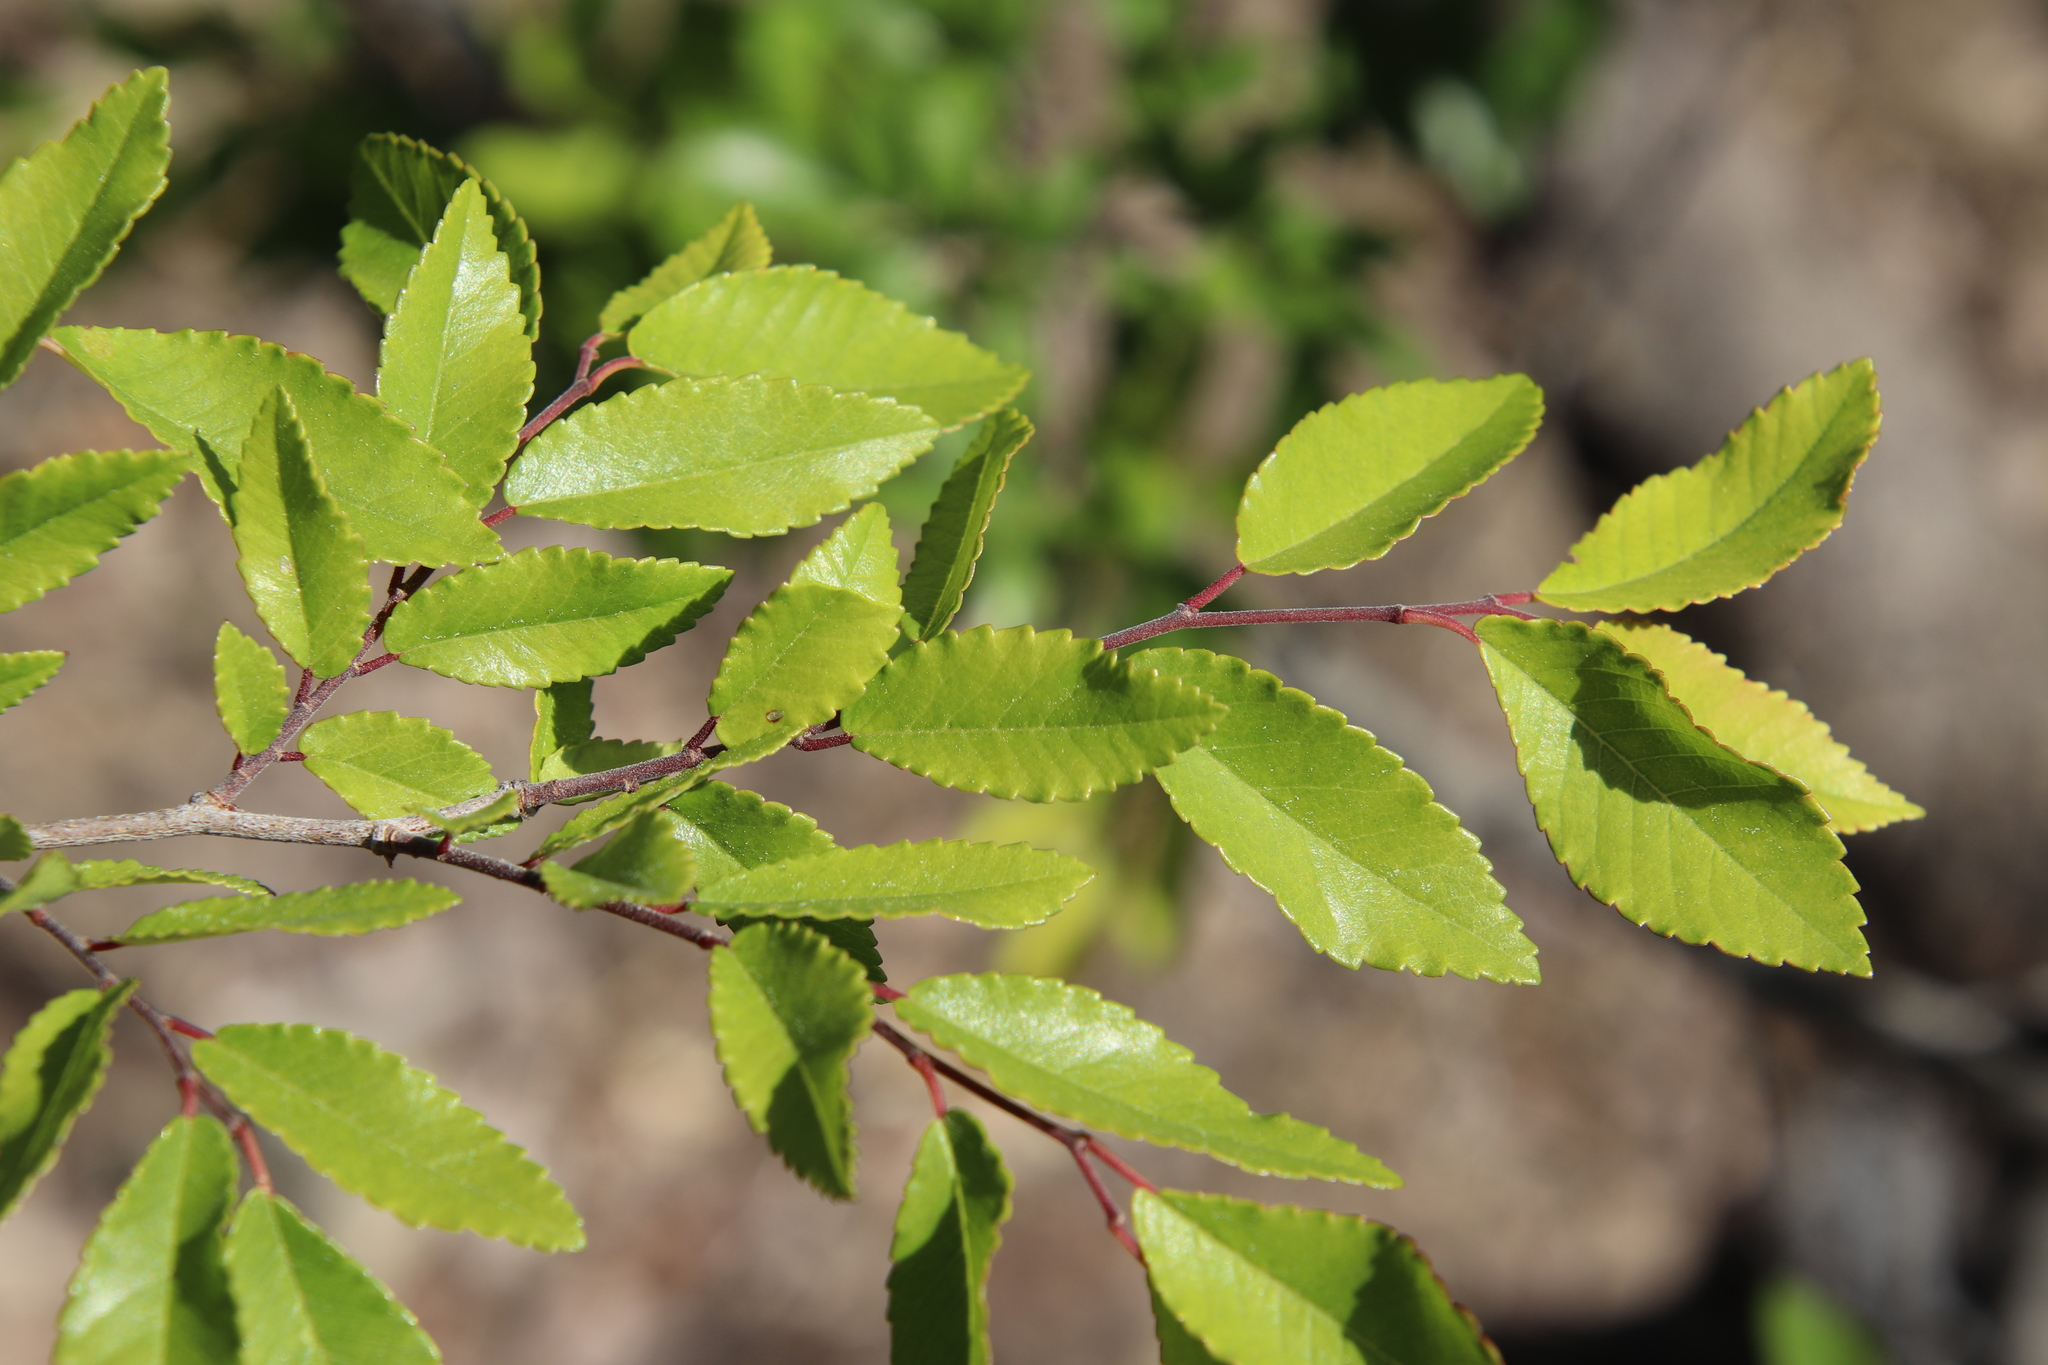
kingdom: Plantae
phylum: Tracheophyta
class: Magnoliopsida
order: Rosales
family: Ulmaceae
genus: Ulmus
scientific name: Ulmus parvifolia
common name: Chinese elm
